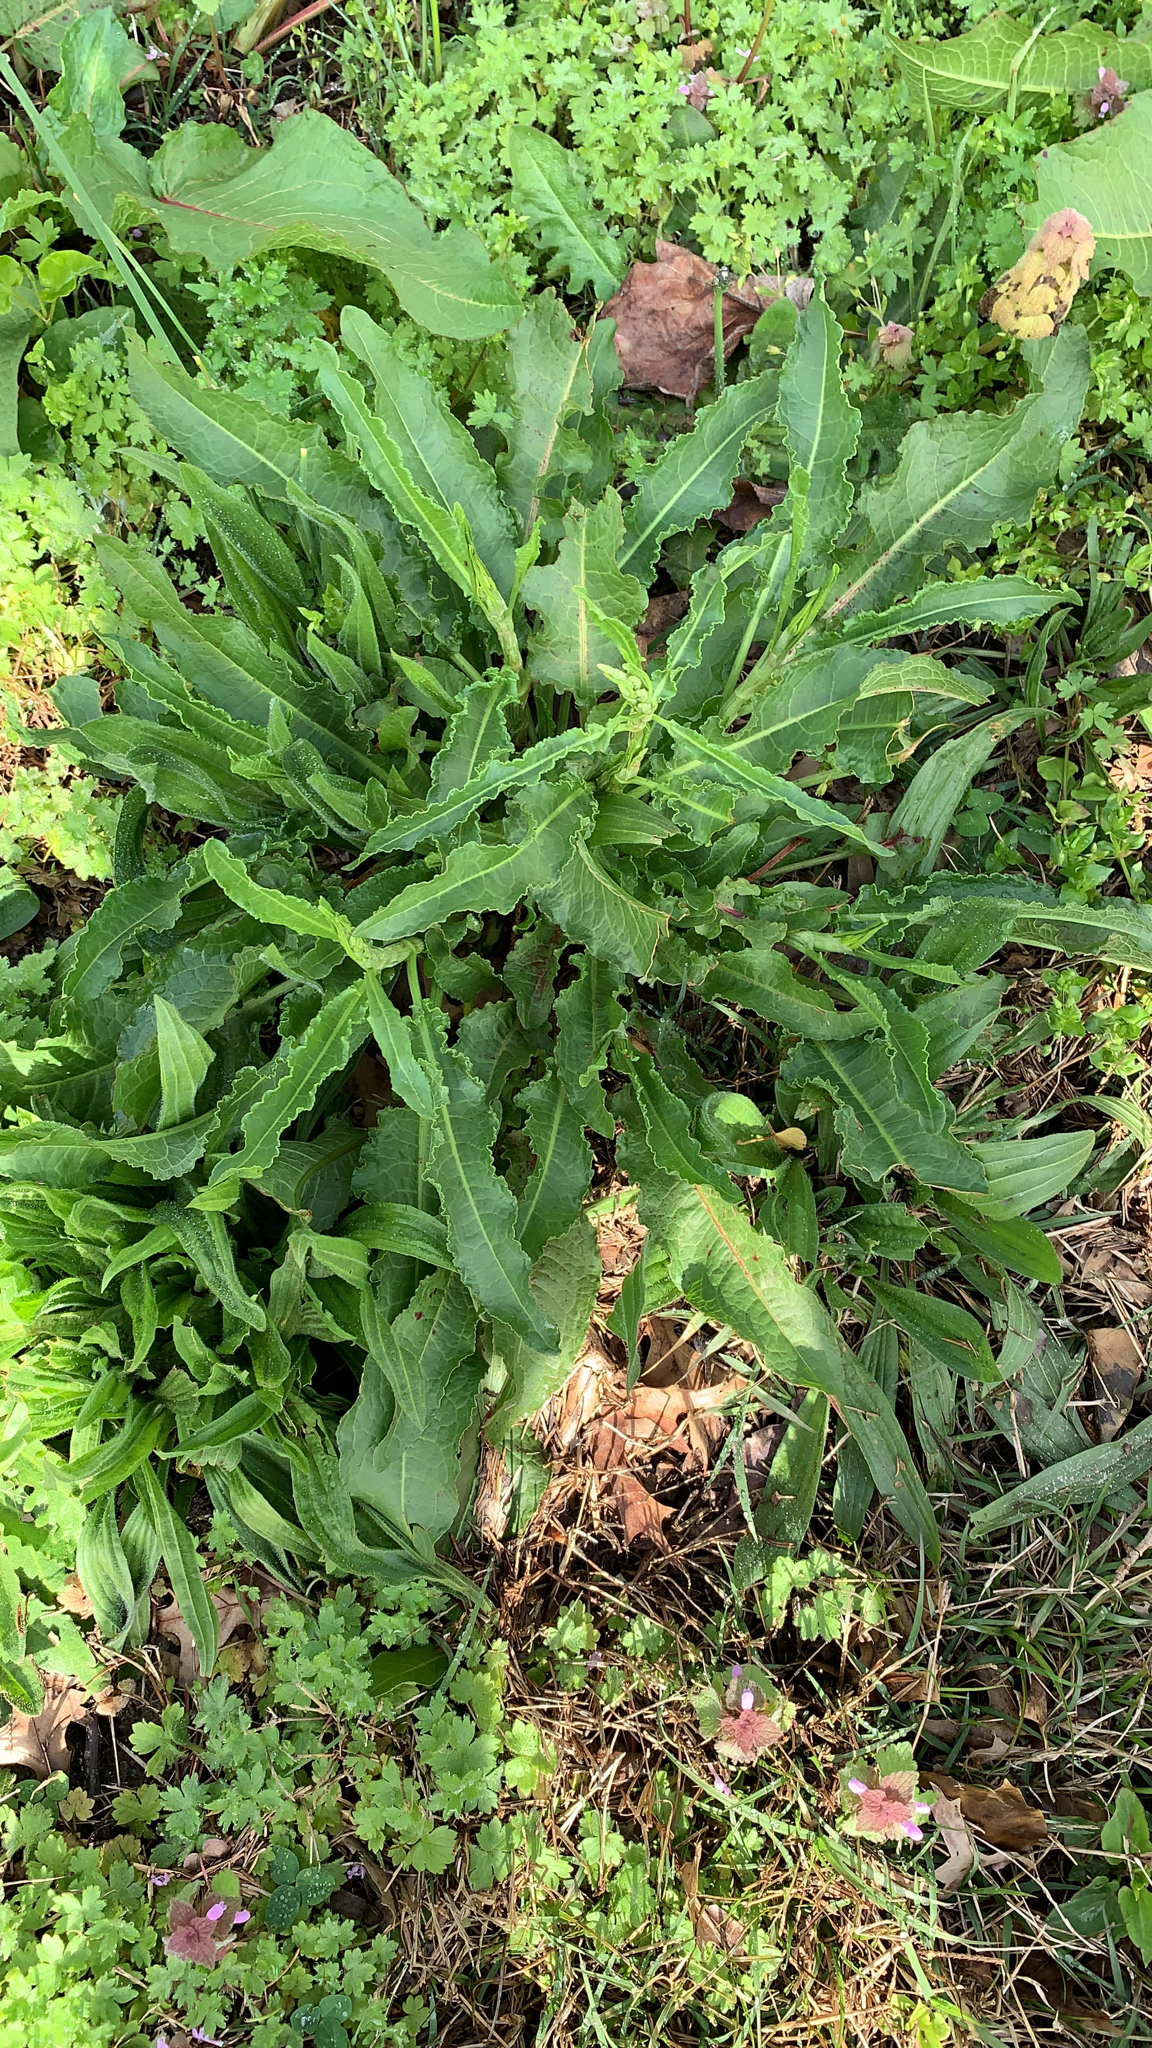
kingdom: Plantae
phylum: Tracheophyta
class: Magnoliopsida
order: Caryophyllales
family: Polygonaceae
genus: Rumex
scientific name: Rumex crispus
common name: Curled dock
